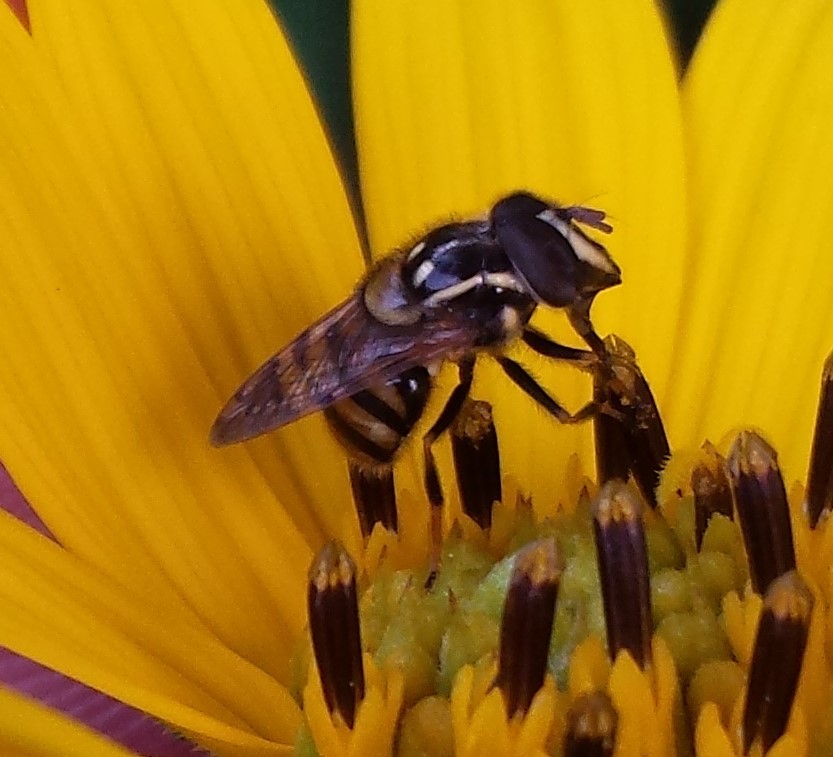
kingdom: Animalia
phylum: Arthropoda
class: Insecta
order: Diptera
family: Syrphidae
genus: Copestylum
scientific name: Copestylum vittatum
